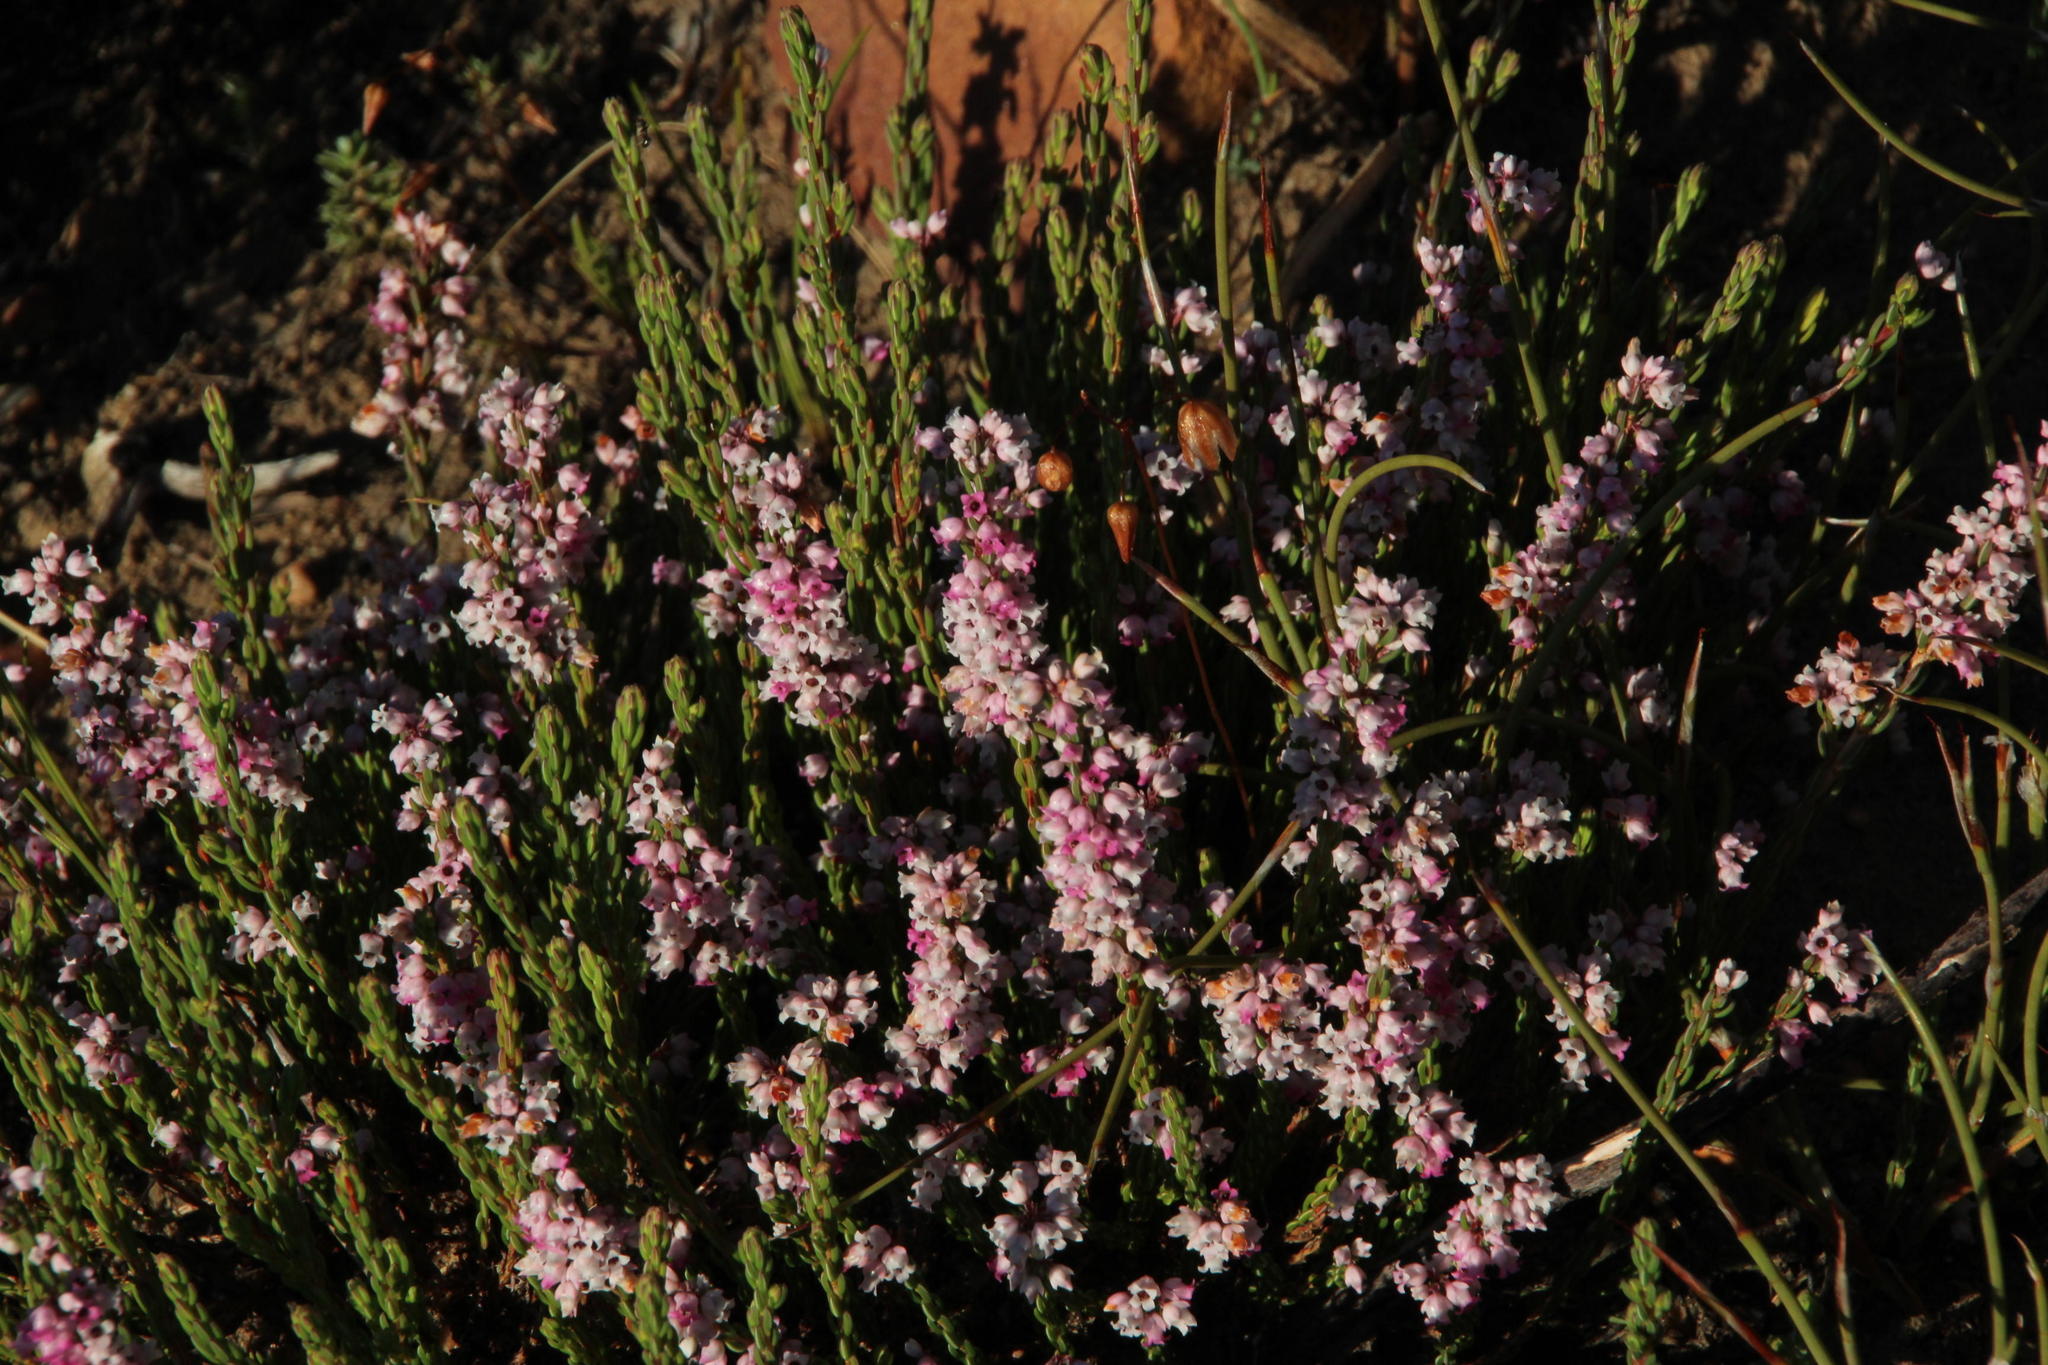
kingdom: Plantae
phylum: Tracheophyta
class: Magnoliopsida
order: Ericales
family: Ericaceae
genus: Erica
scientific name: Erica articularis
